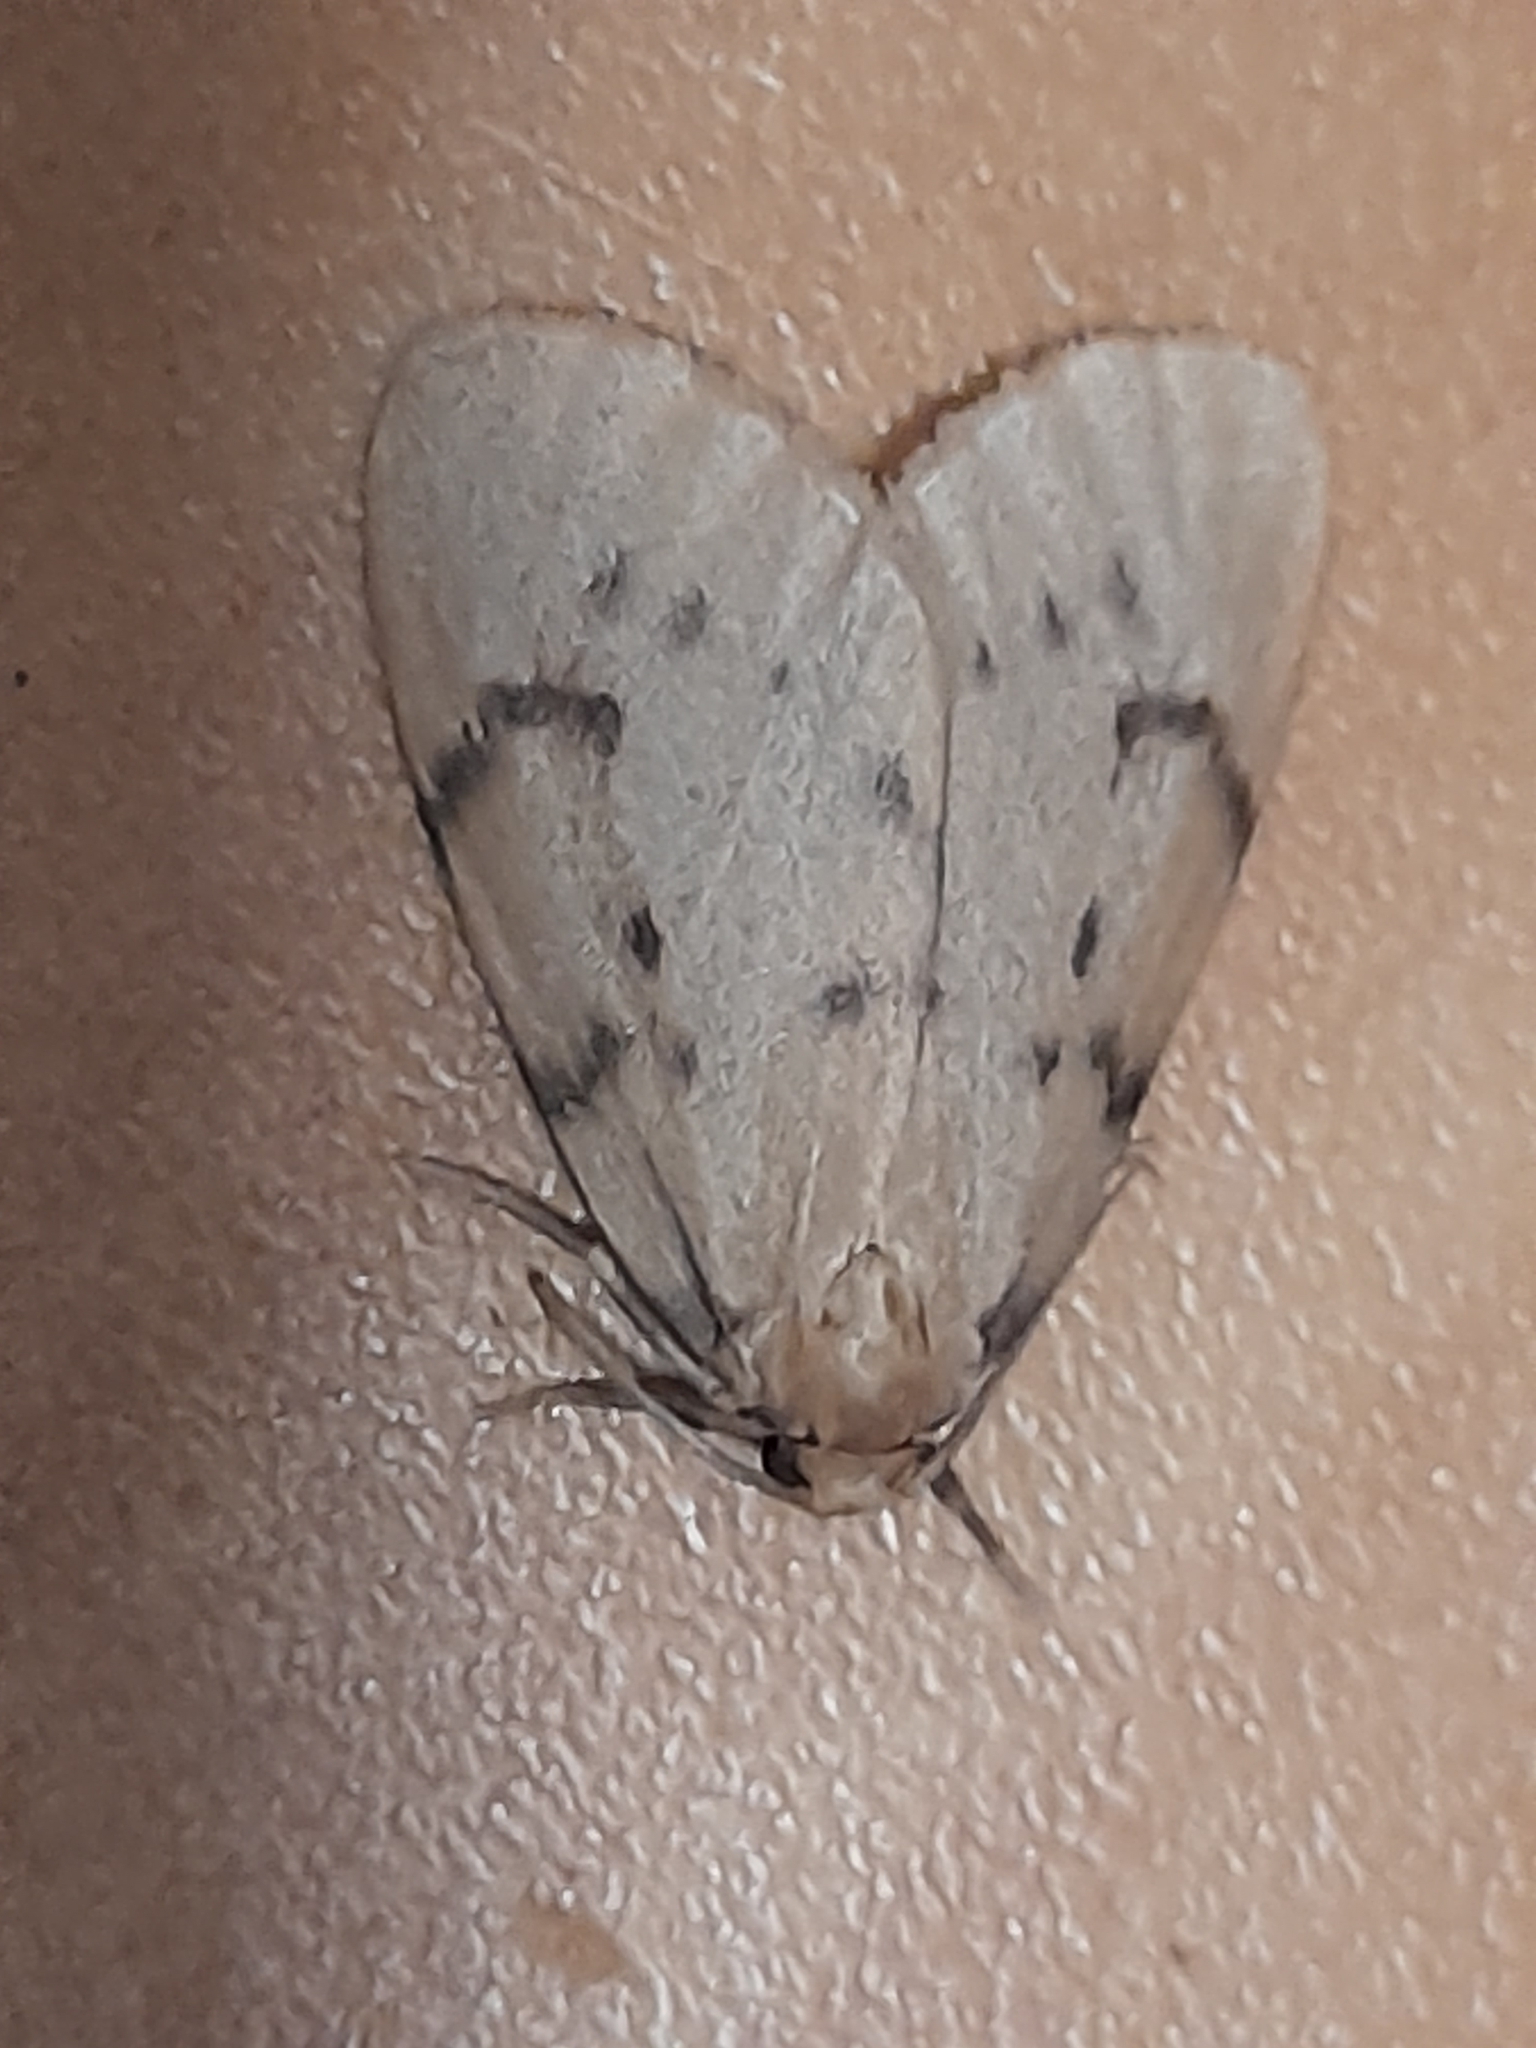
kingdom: Animalia
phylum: Arthropoda
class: Insecta
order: Lepidoptera
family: Erebidae
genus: Paidia
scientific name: Paidia rica
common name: Glaucous muslin
